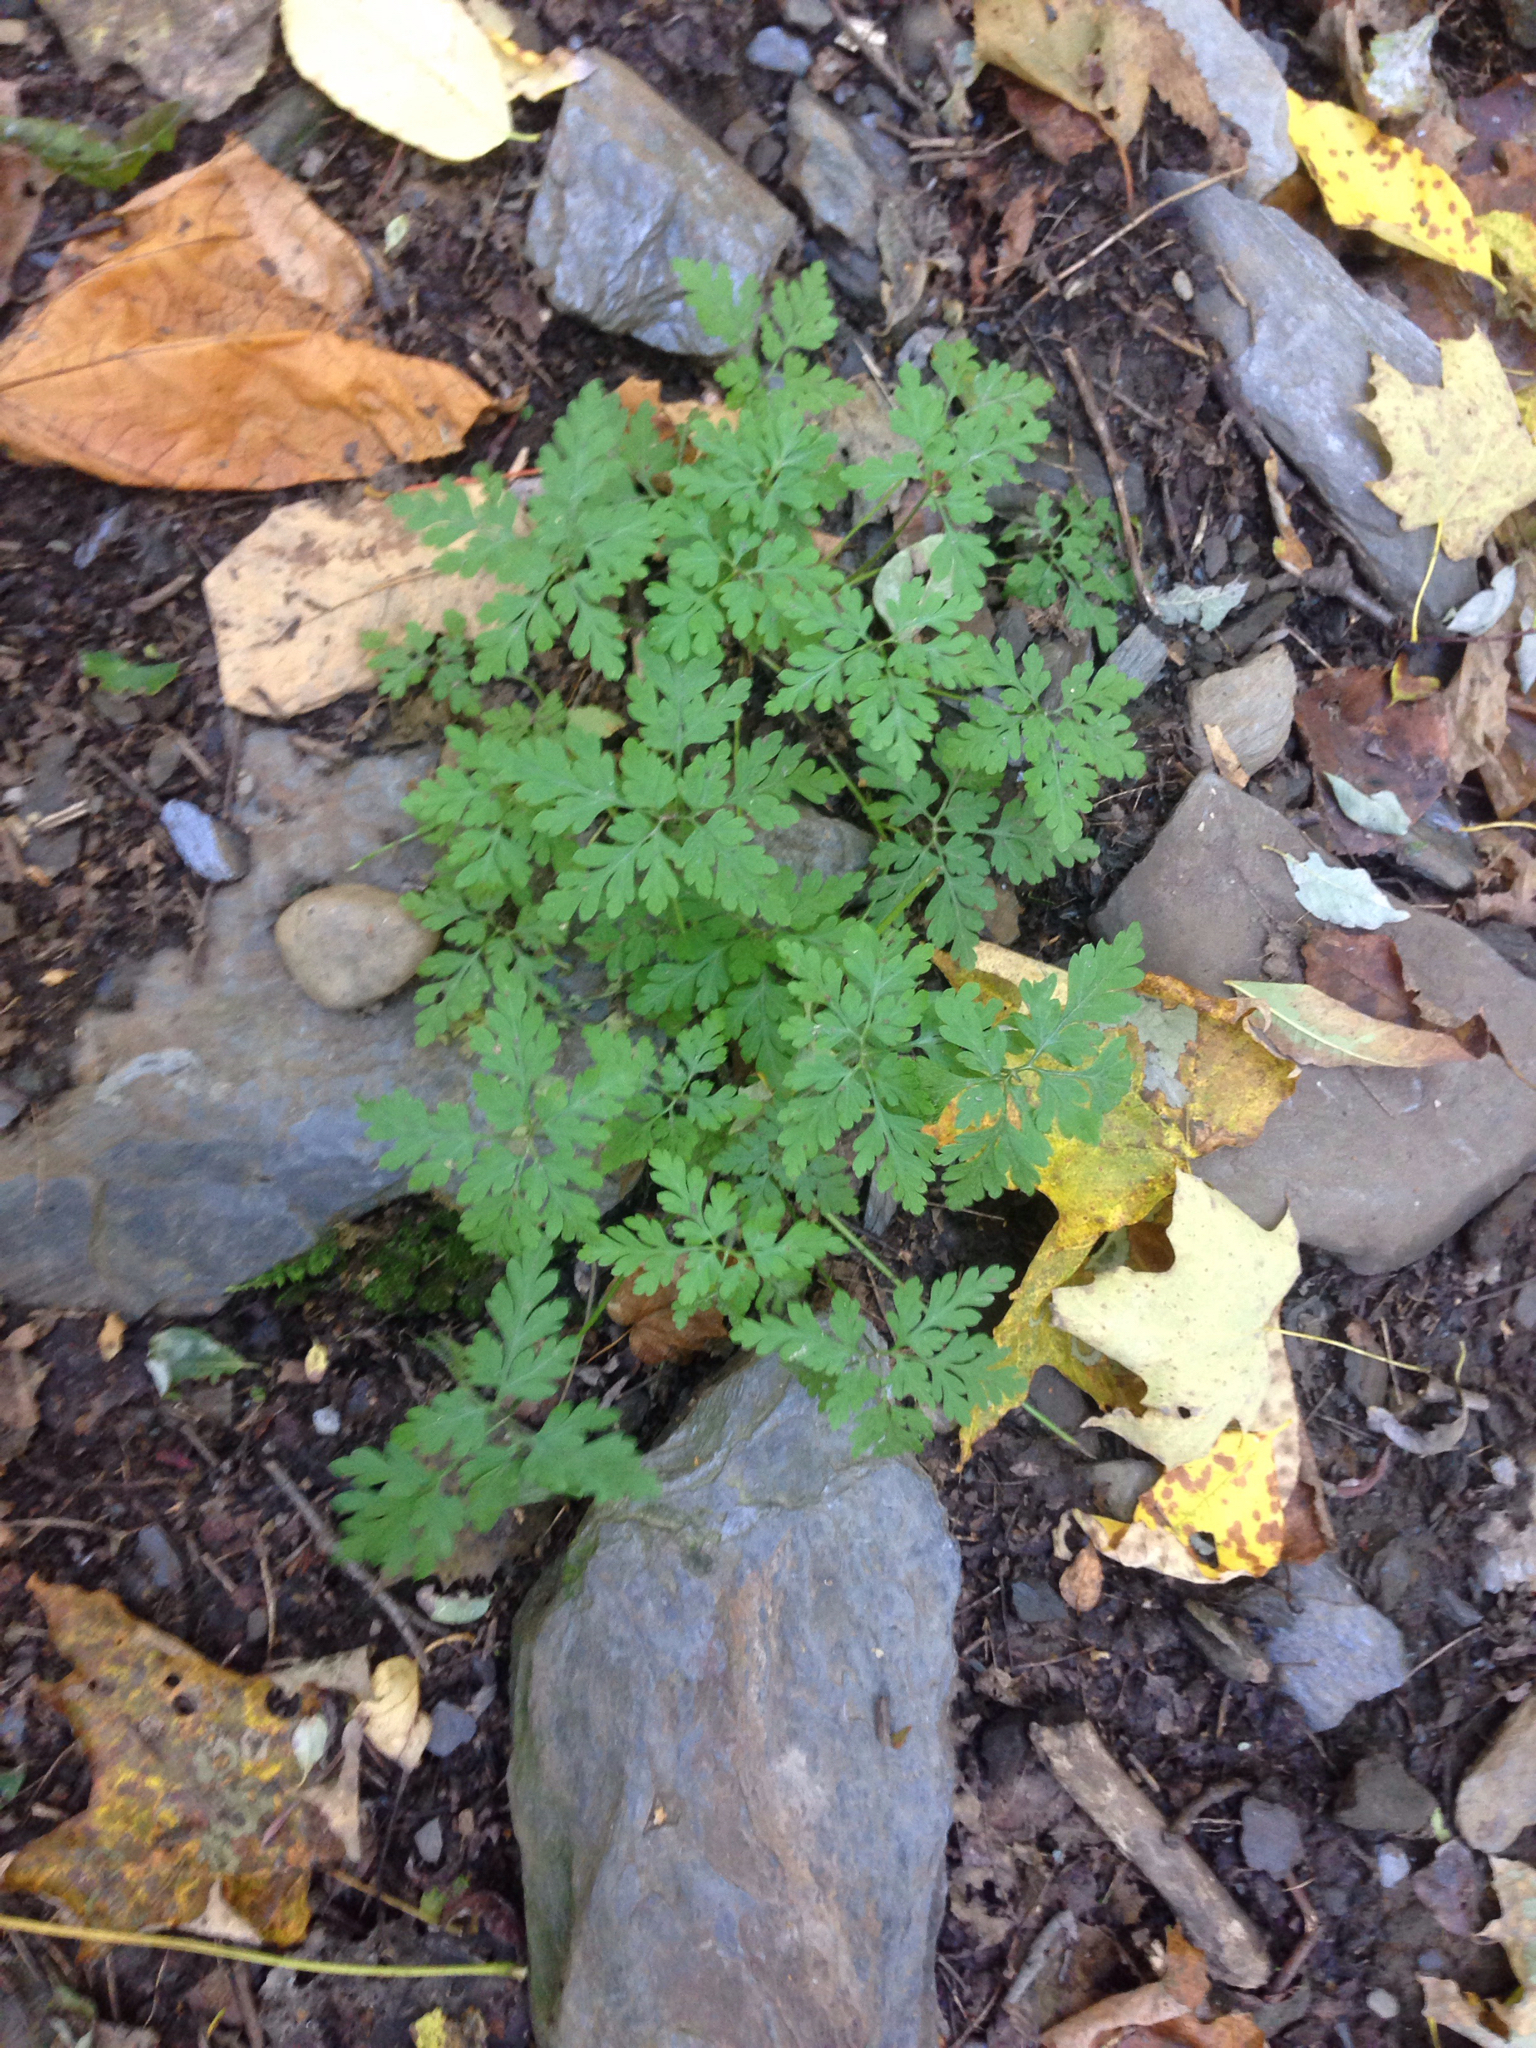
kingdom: Plantae
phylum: Tracheophyta
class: Magnoliopsida
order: Geraniales
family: Geraniaceae
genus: Geranium
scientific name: Geranium robertianum
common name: Herb-robert
